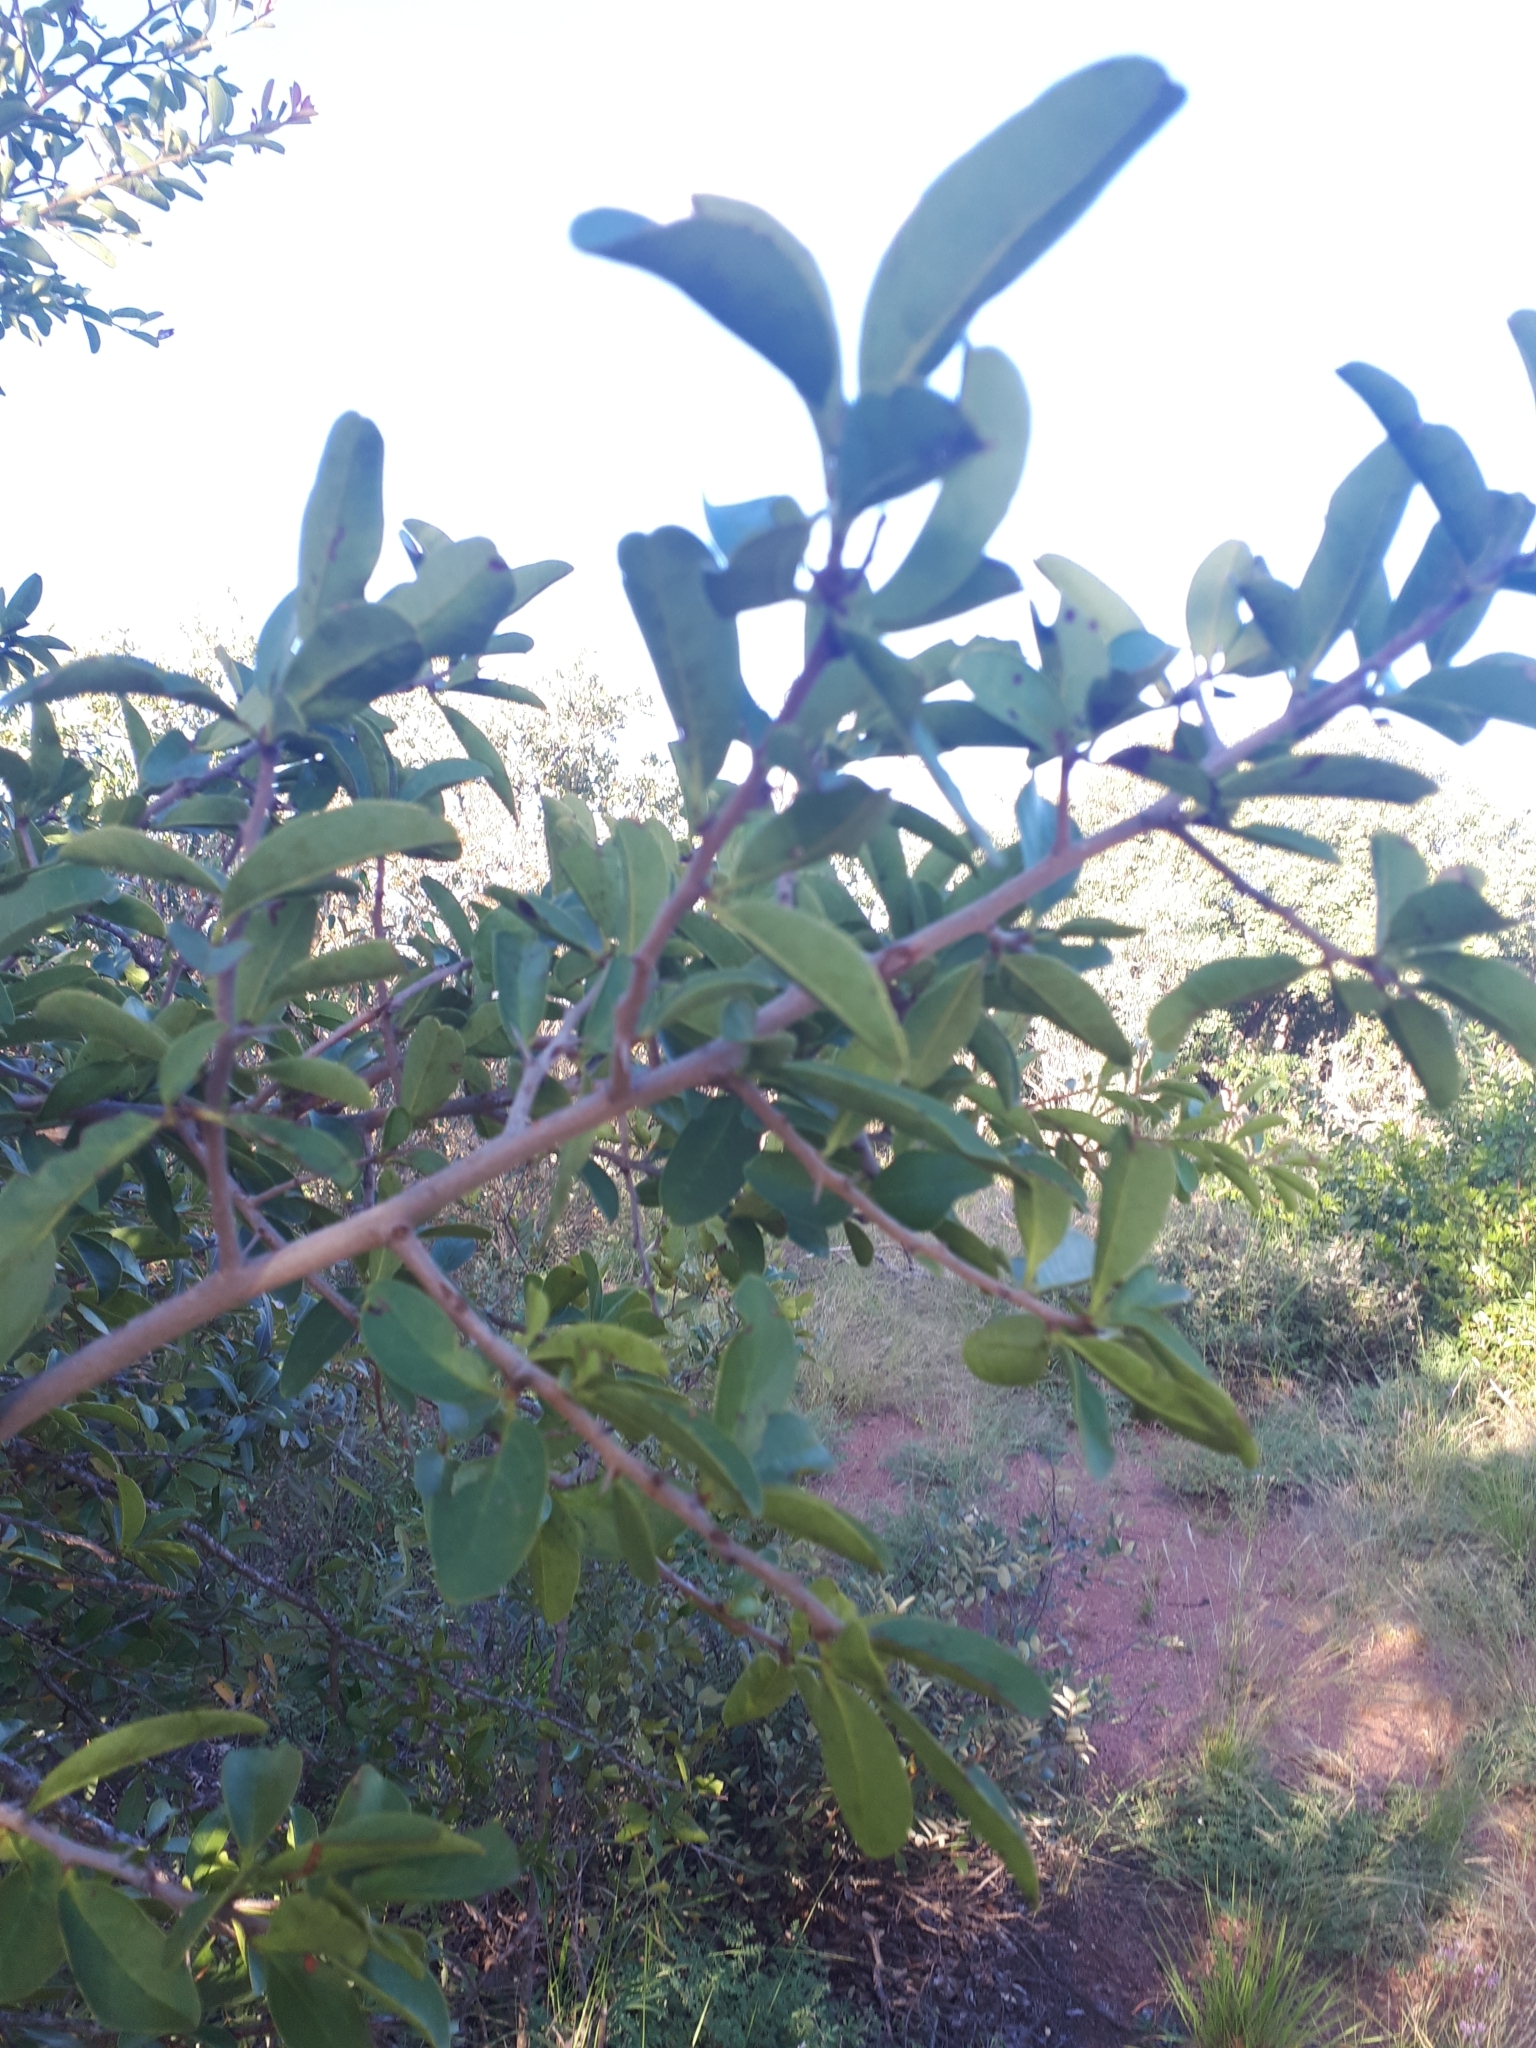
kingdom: Plantae
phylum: Tracheophyta
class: Magnoliopsida
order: Santalales
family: Ximeniaceae
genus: Ximenia
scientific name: Ximenia caffra
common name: Large sourplum
